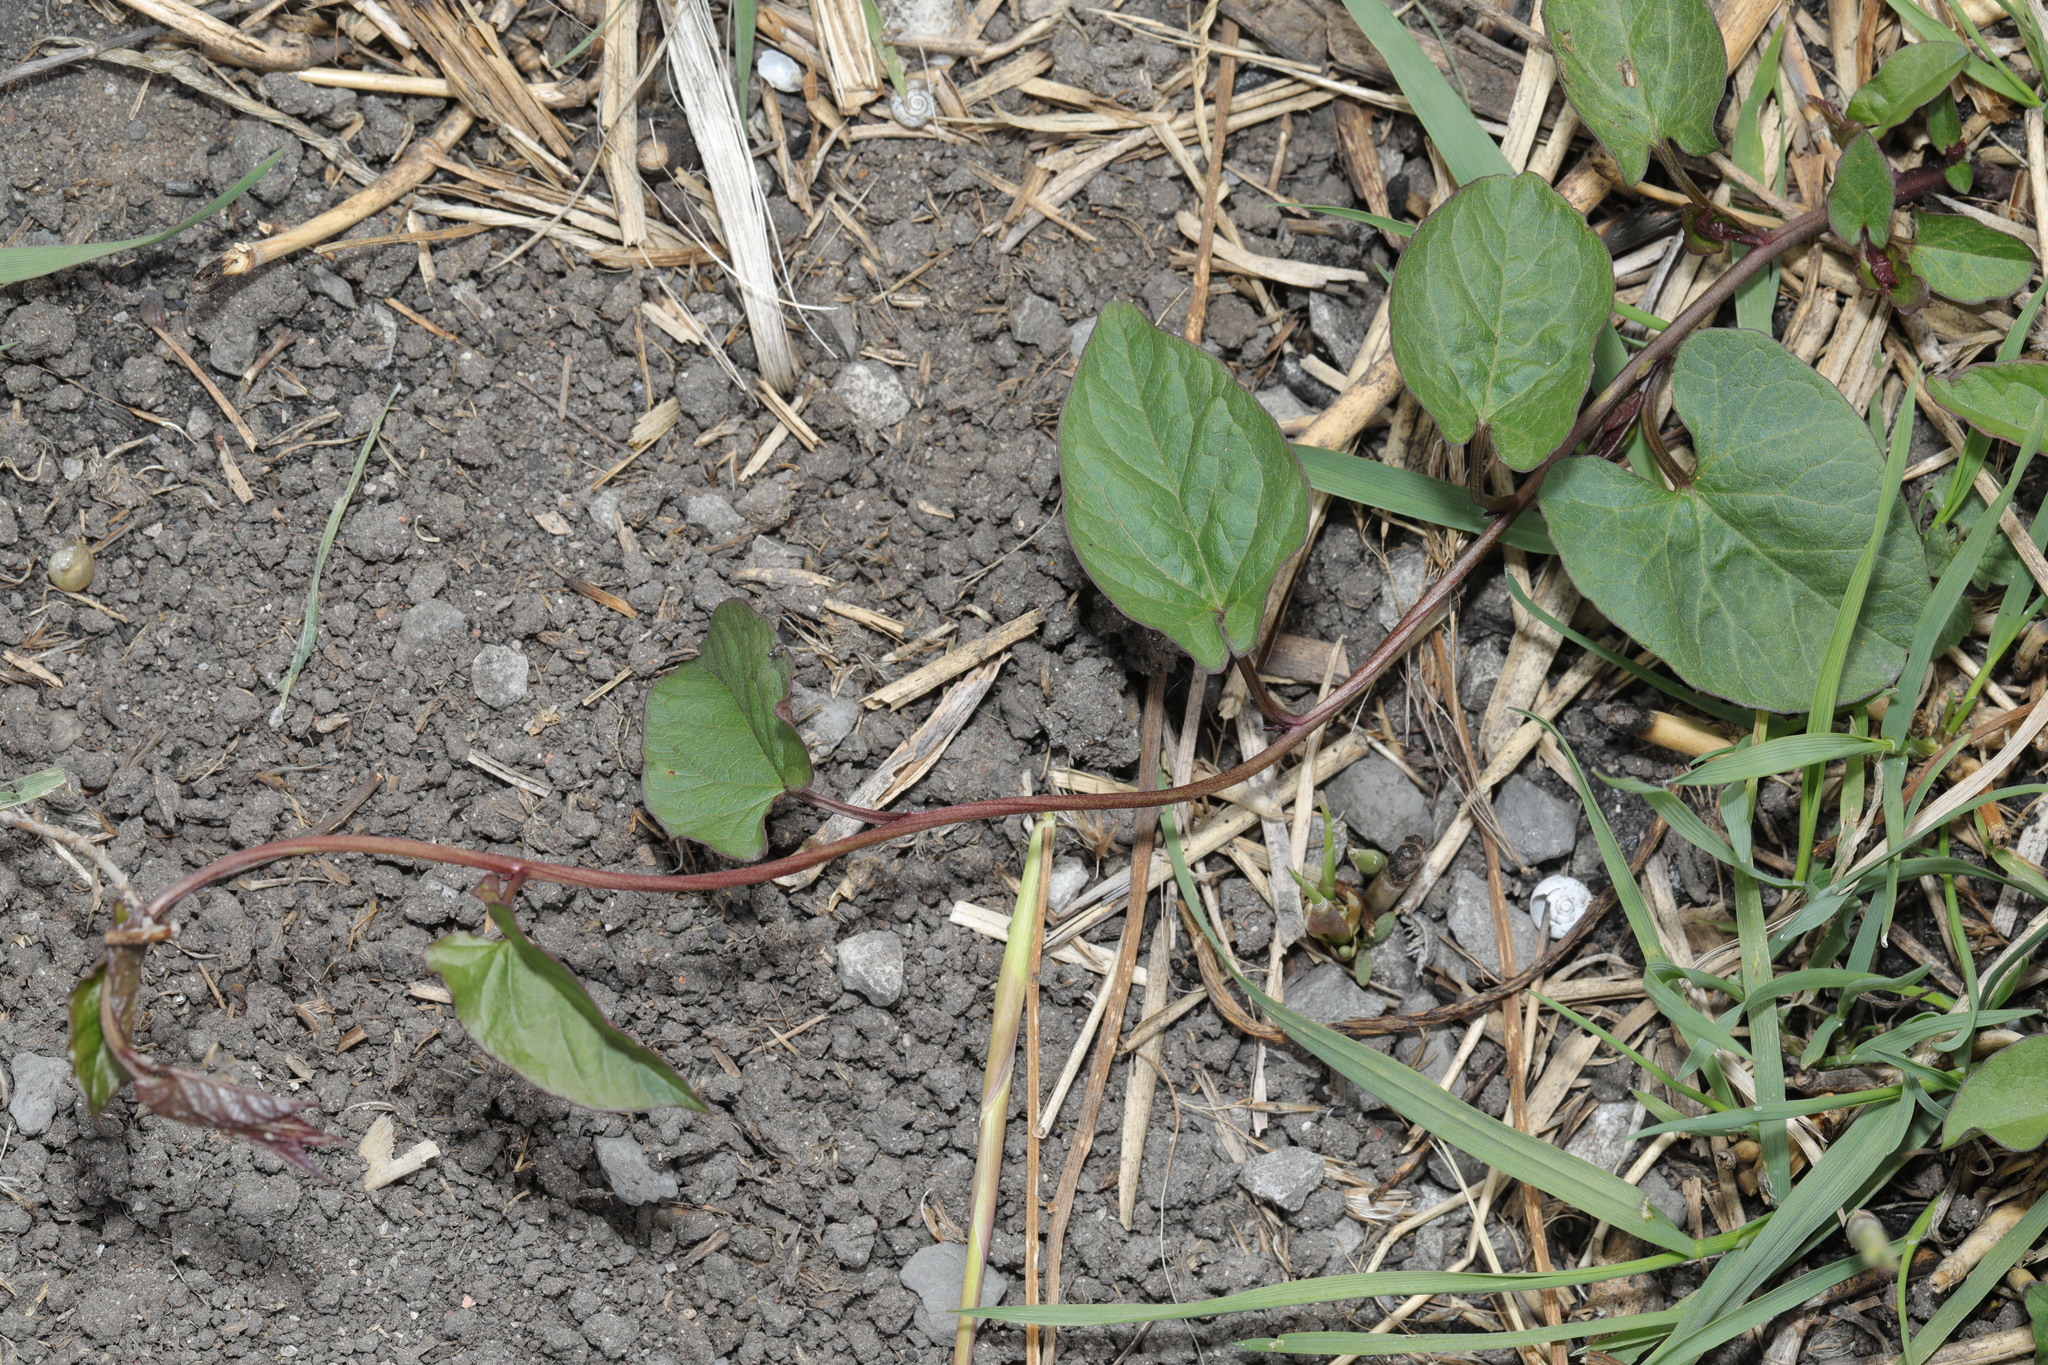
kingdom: Plantae
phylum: Tracheophyta
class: Magnoliopsida
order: Caryophyllales
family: Polygonaceae
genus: Fallopia
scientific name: Fallopia convolvulus
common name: Black bindweed
